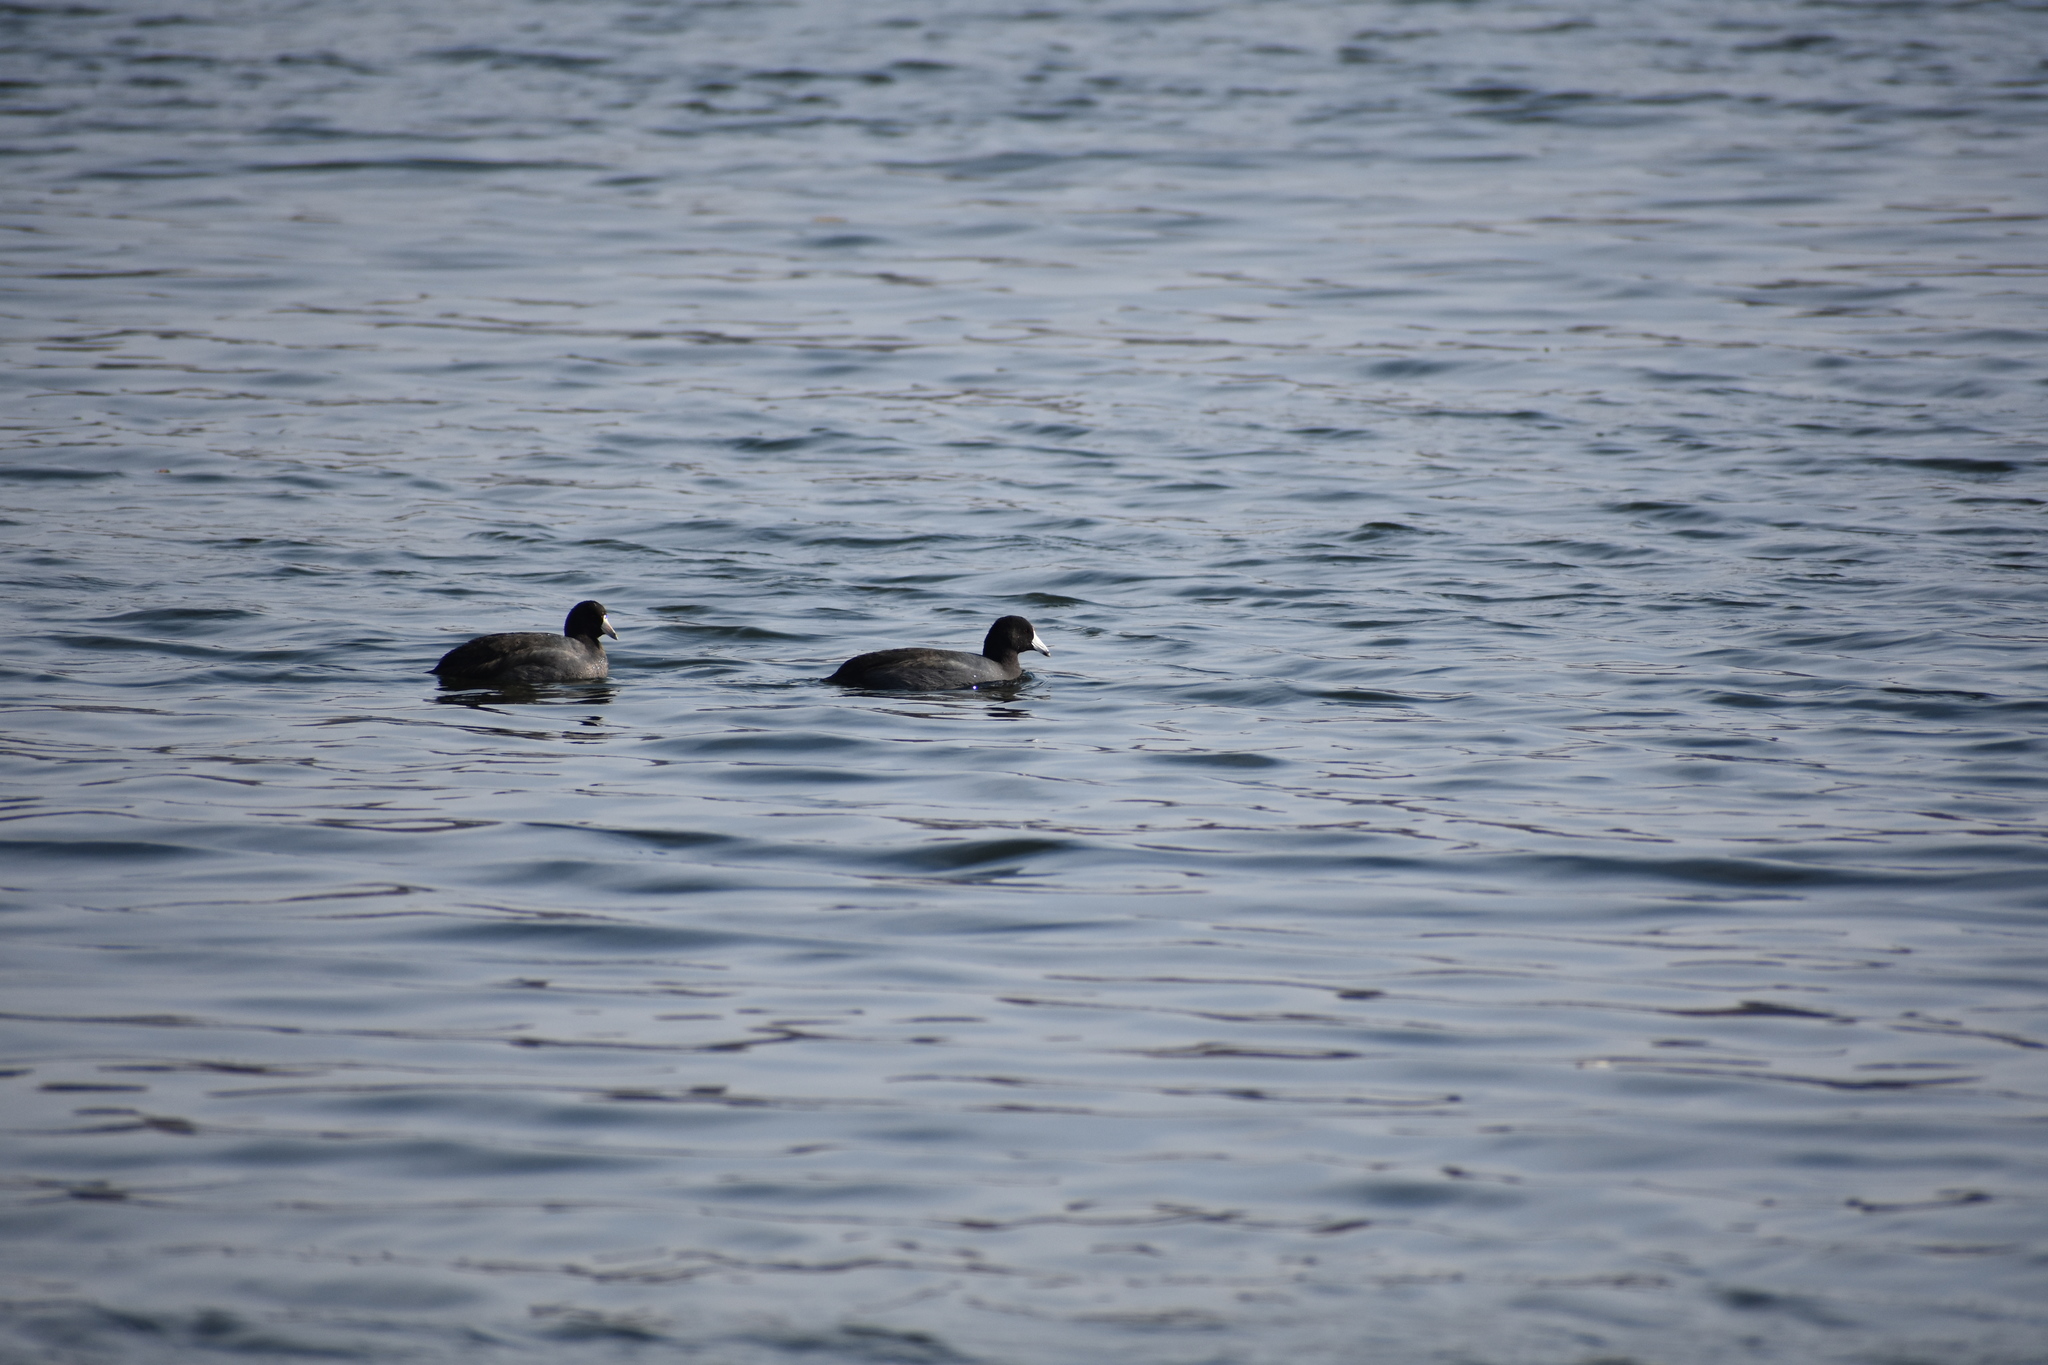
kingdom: Animalia
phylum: Chordata
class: Aves
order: Gruiformes
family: Rallidae
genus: Fulica
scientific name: Fulica americana
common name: American coot
